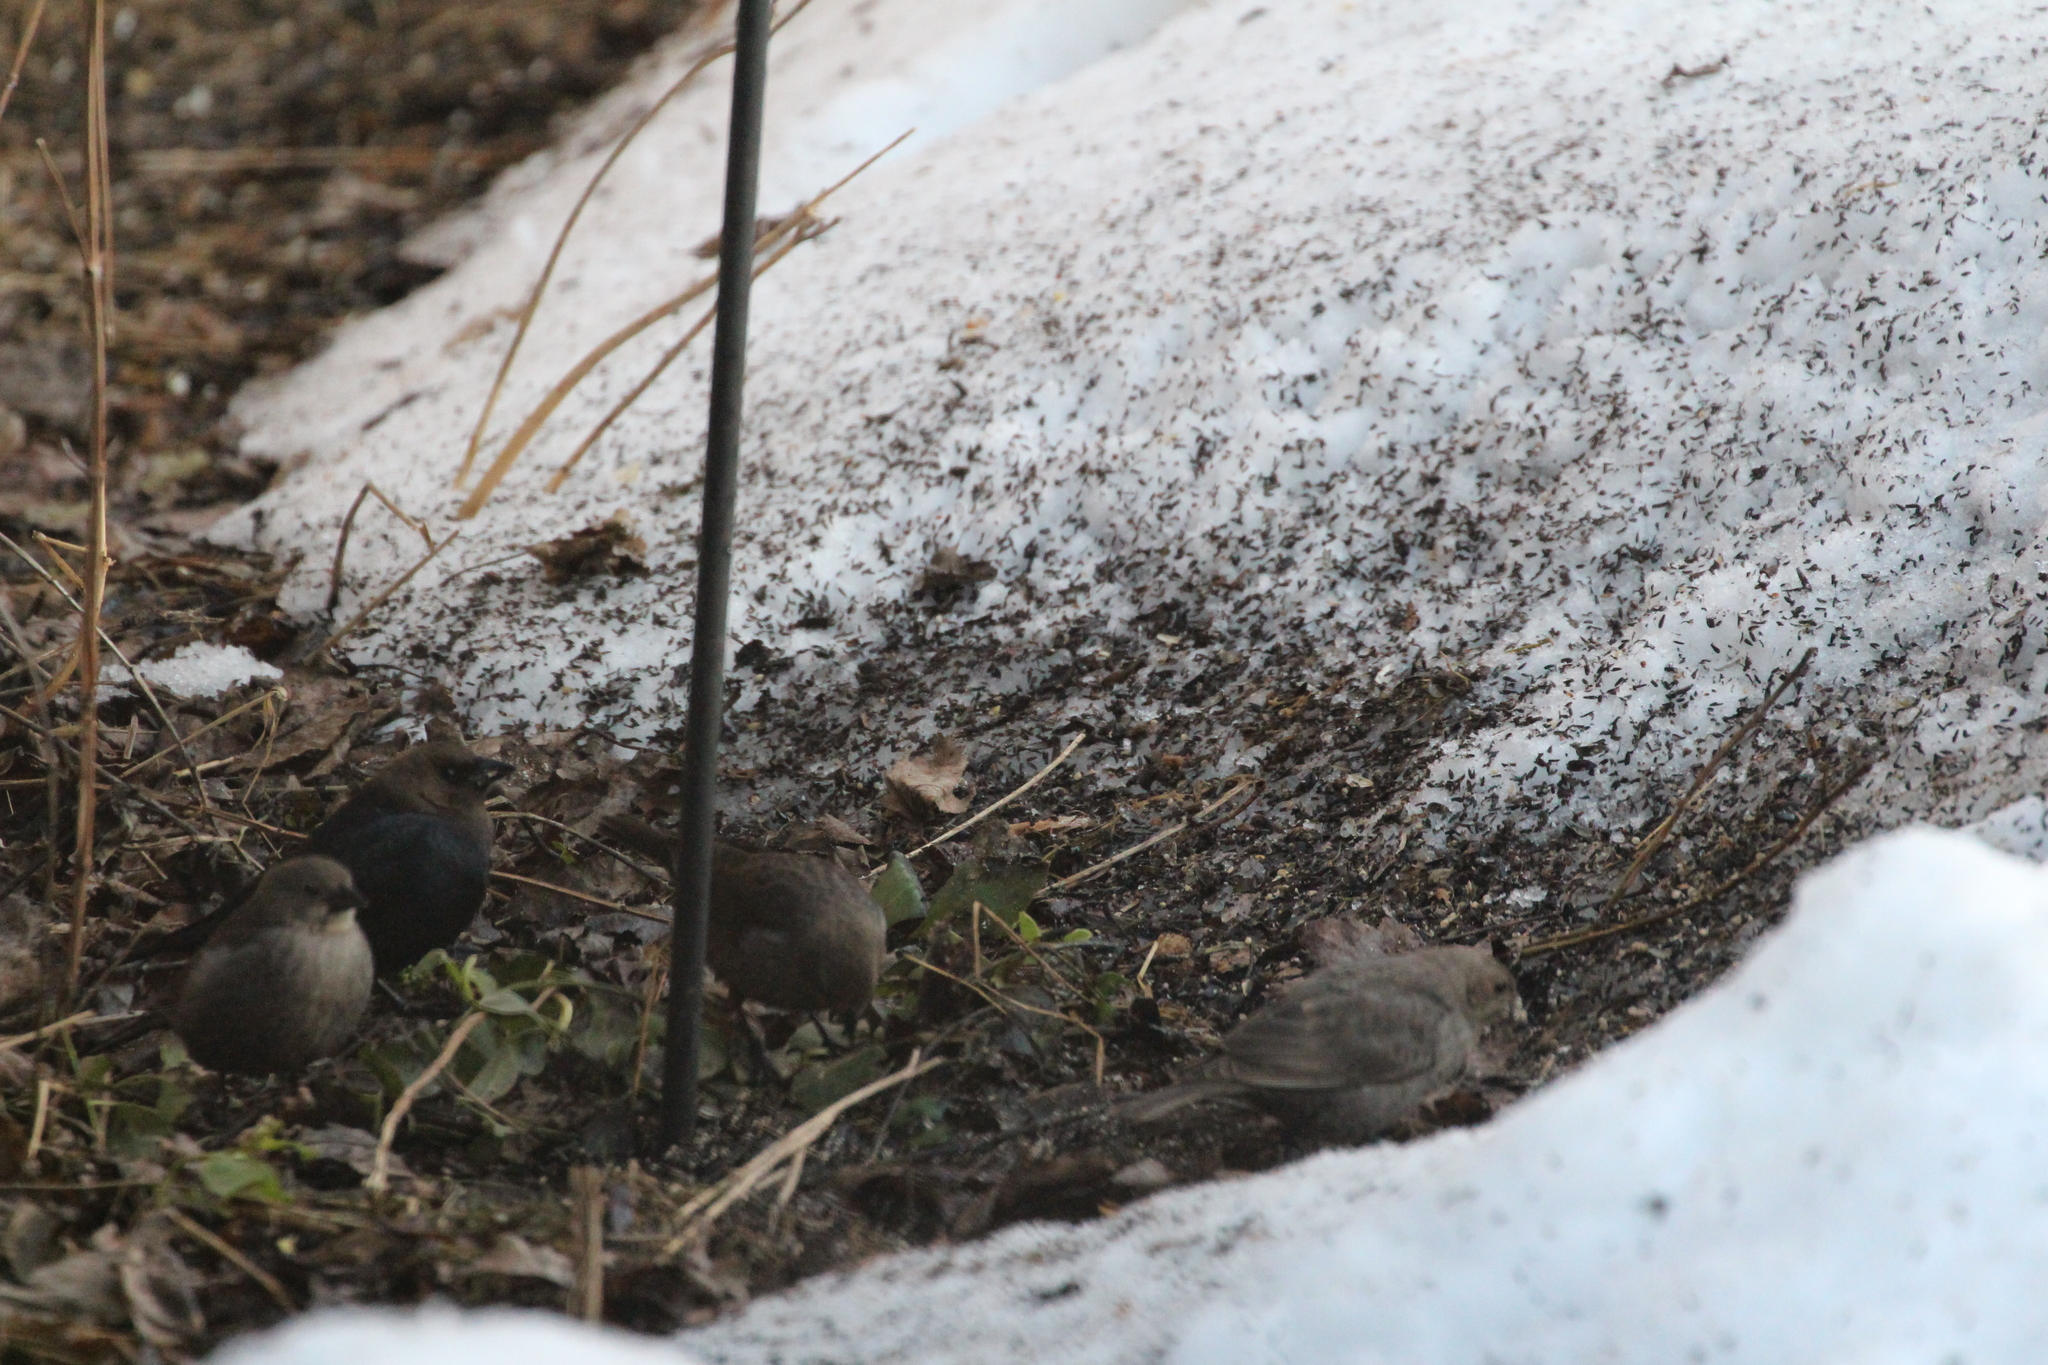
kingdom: Animalia
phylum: Chordata
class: Aves
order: Passeriformes
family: Icteridae
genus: Molothrus
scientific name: Molothrus ater
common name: Brown-headed cowbird
